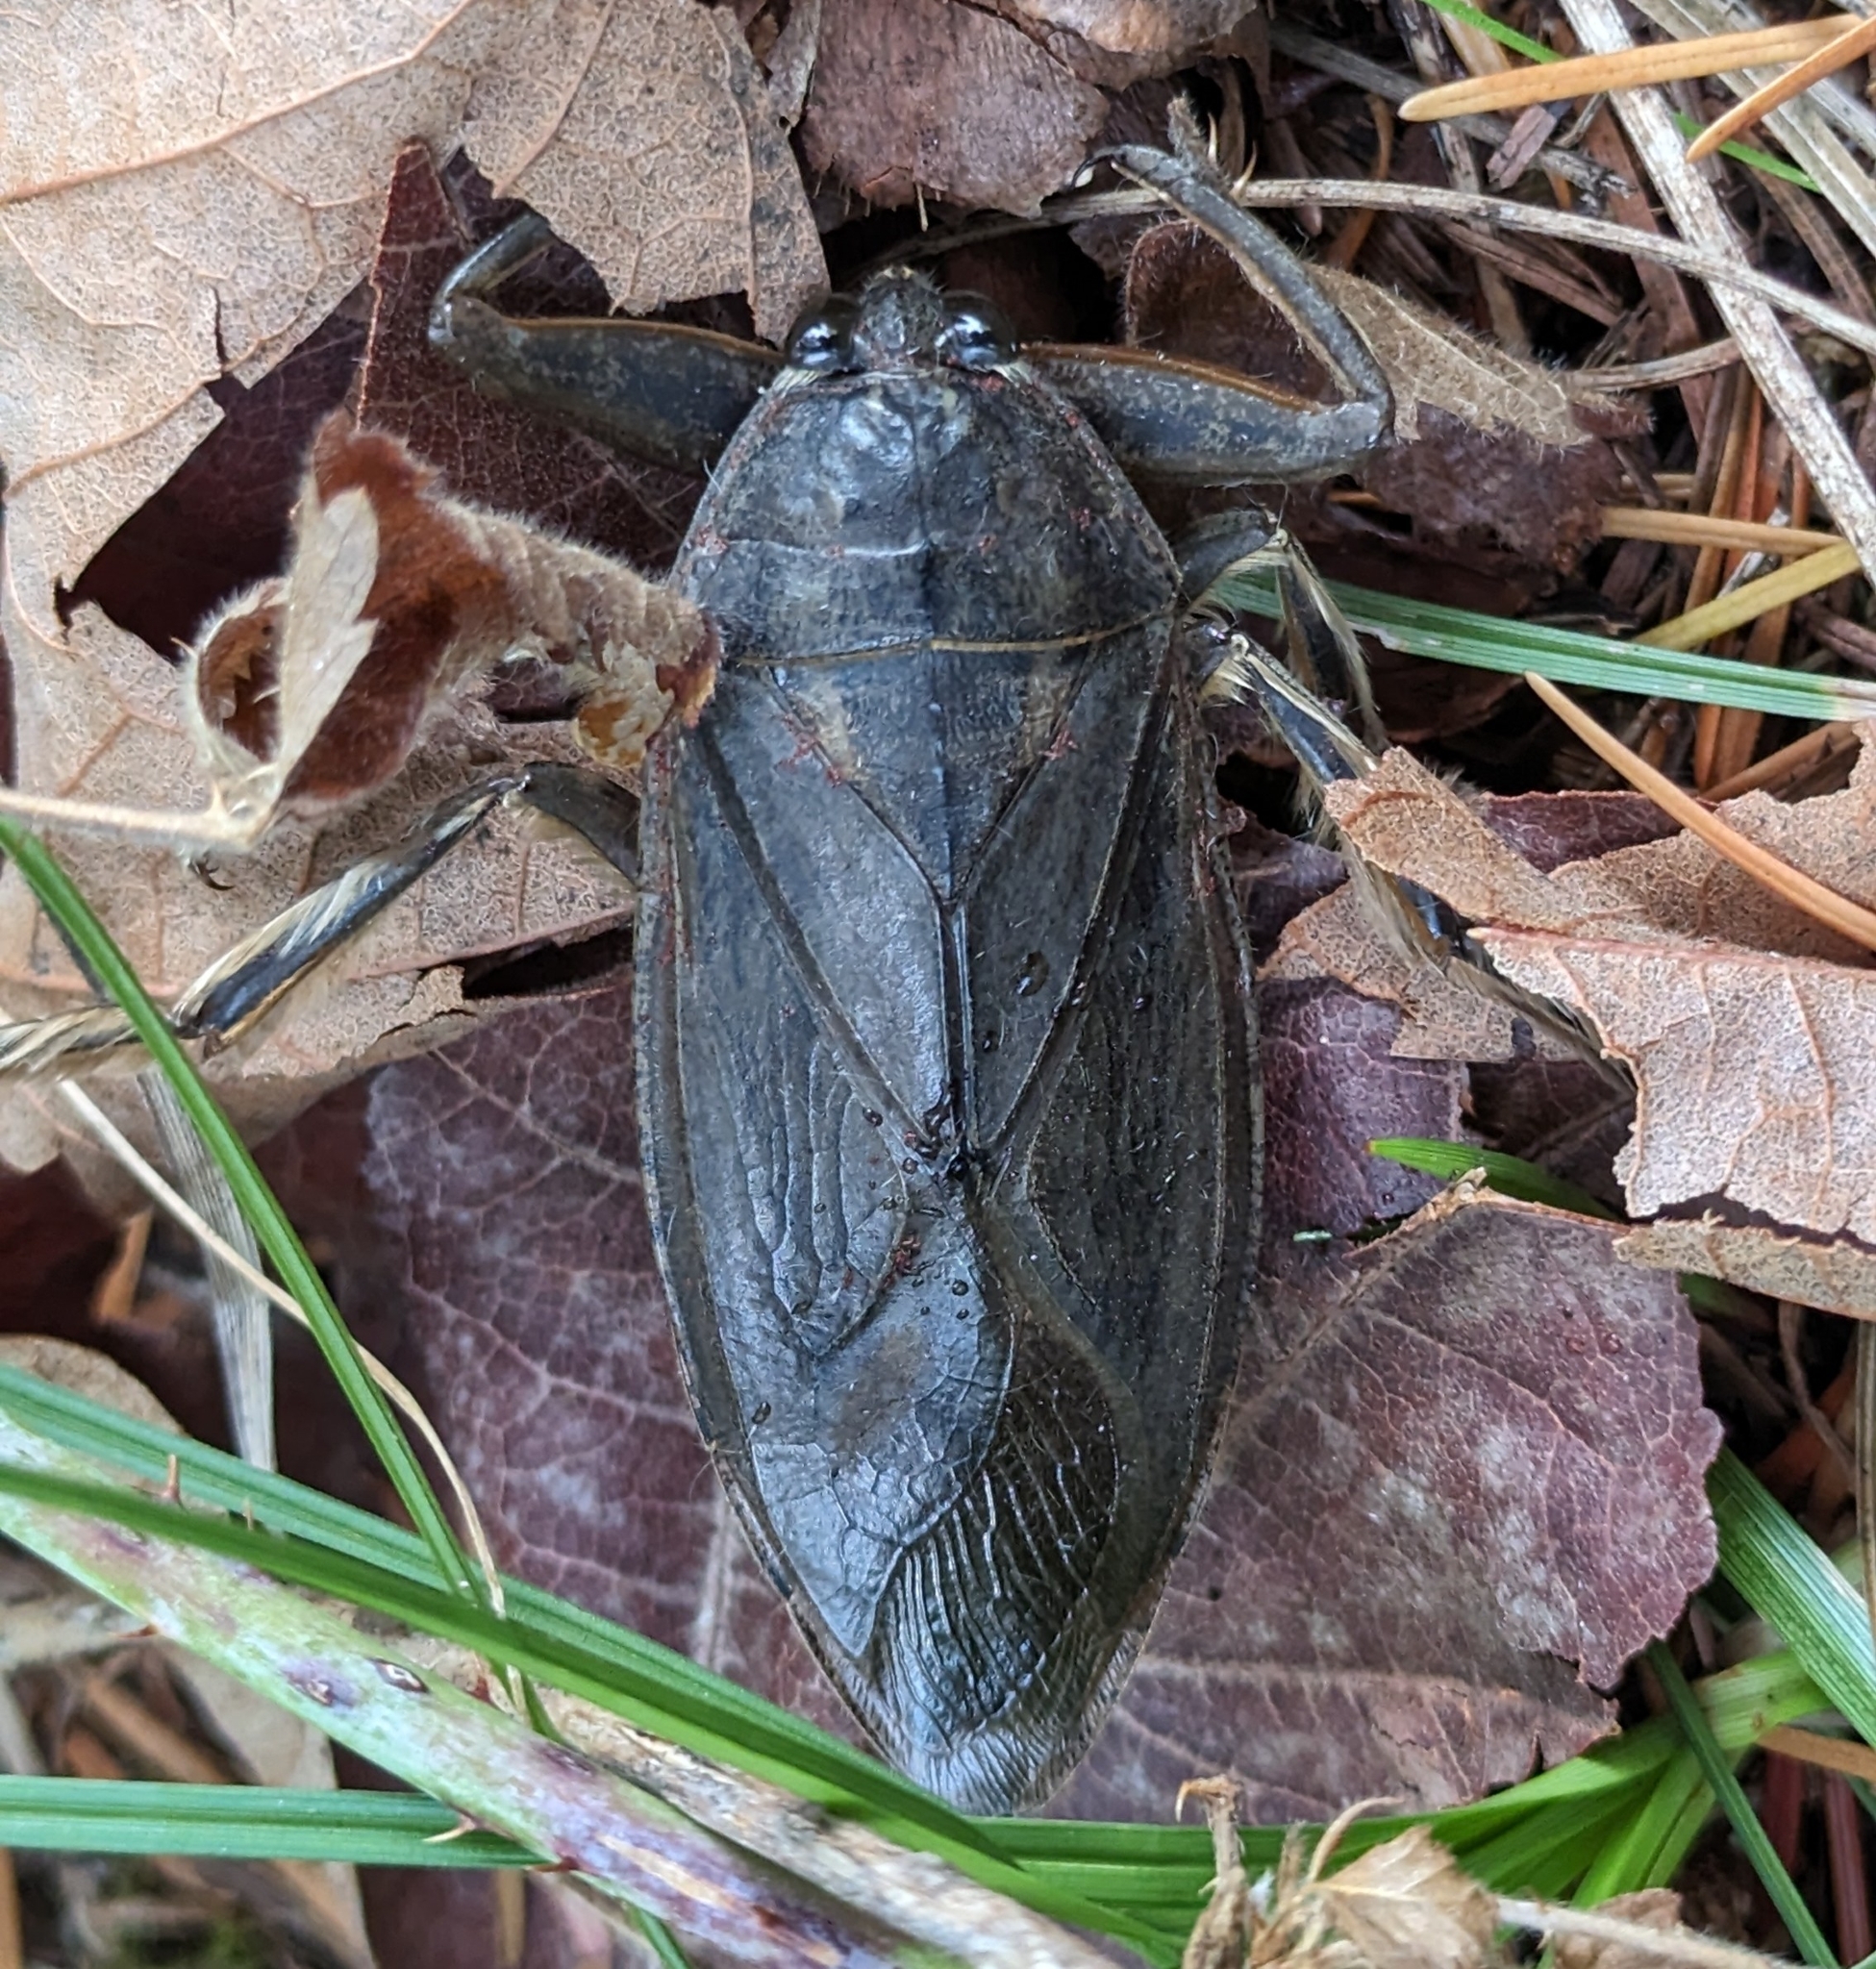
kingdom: Animalia
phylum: Arthropoda
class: Insecta
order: Hemiptera
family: Belostomatidae
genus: Lethocerus
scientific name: Lethocerus americanus
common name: Giant water bug
